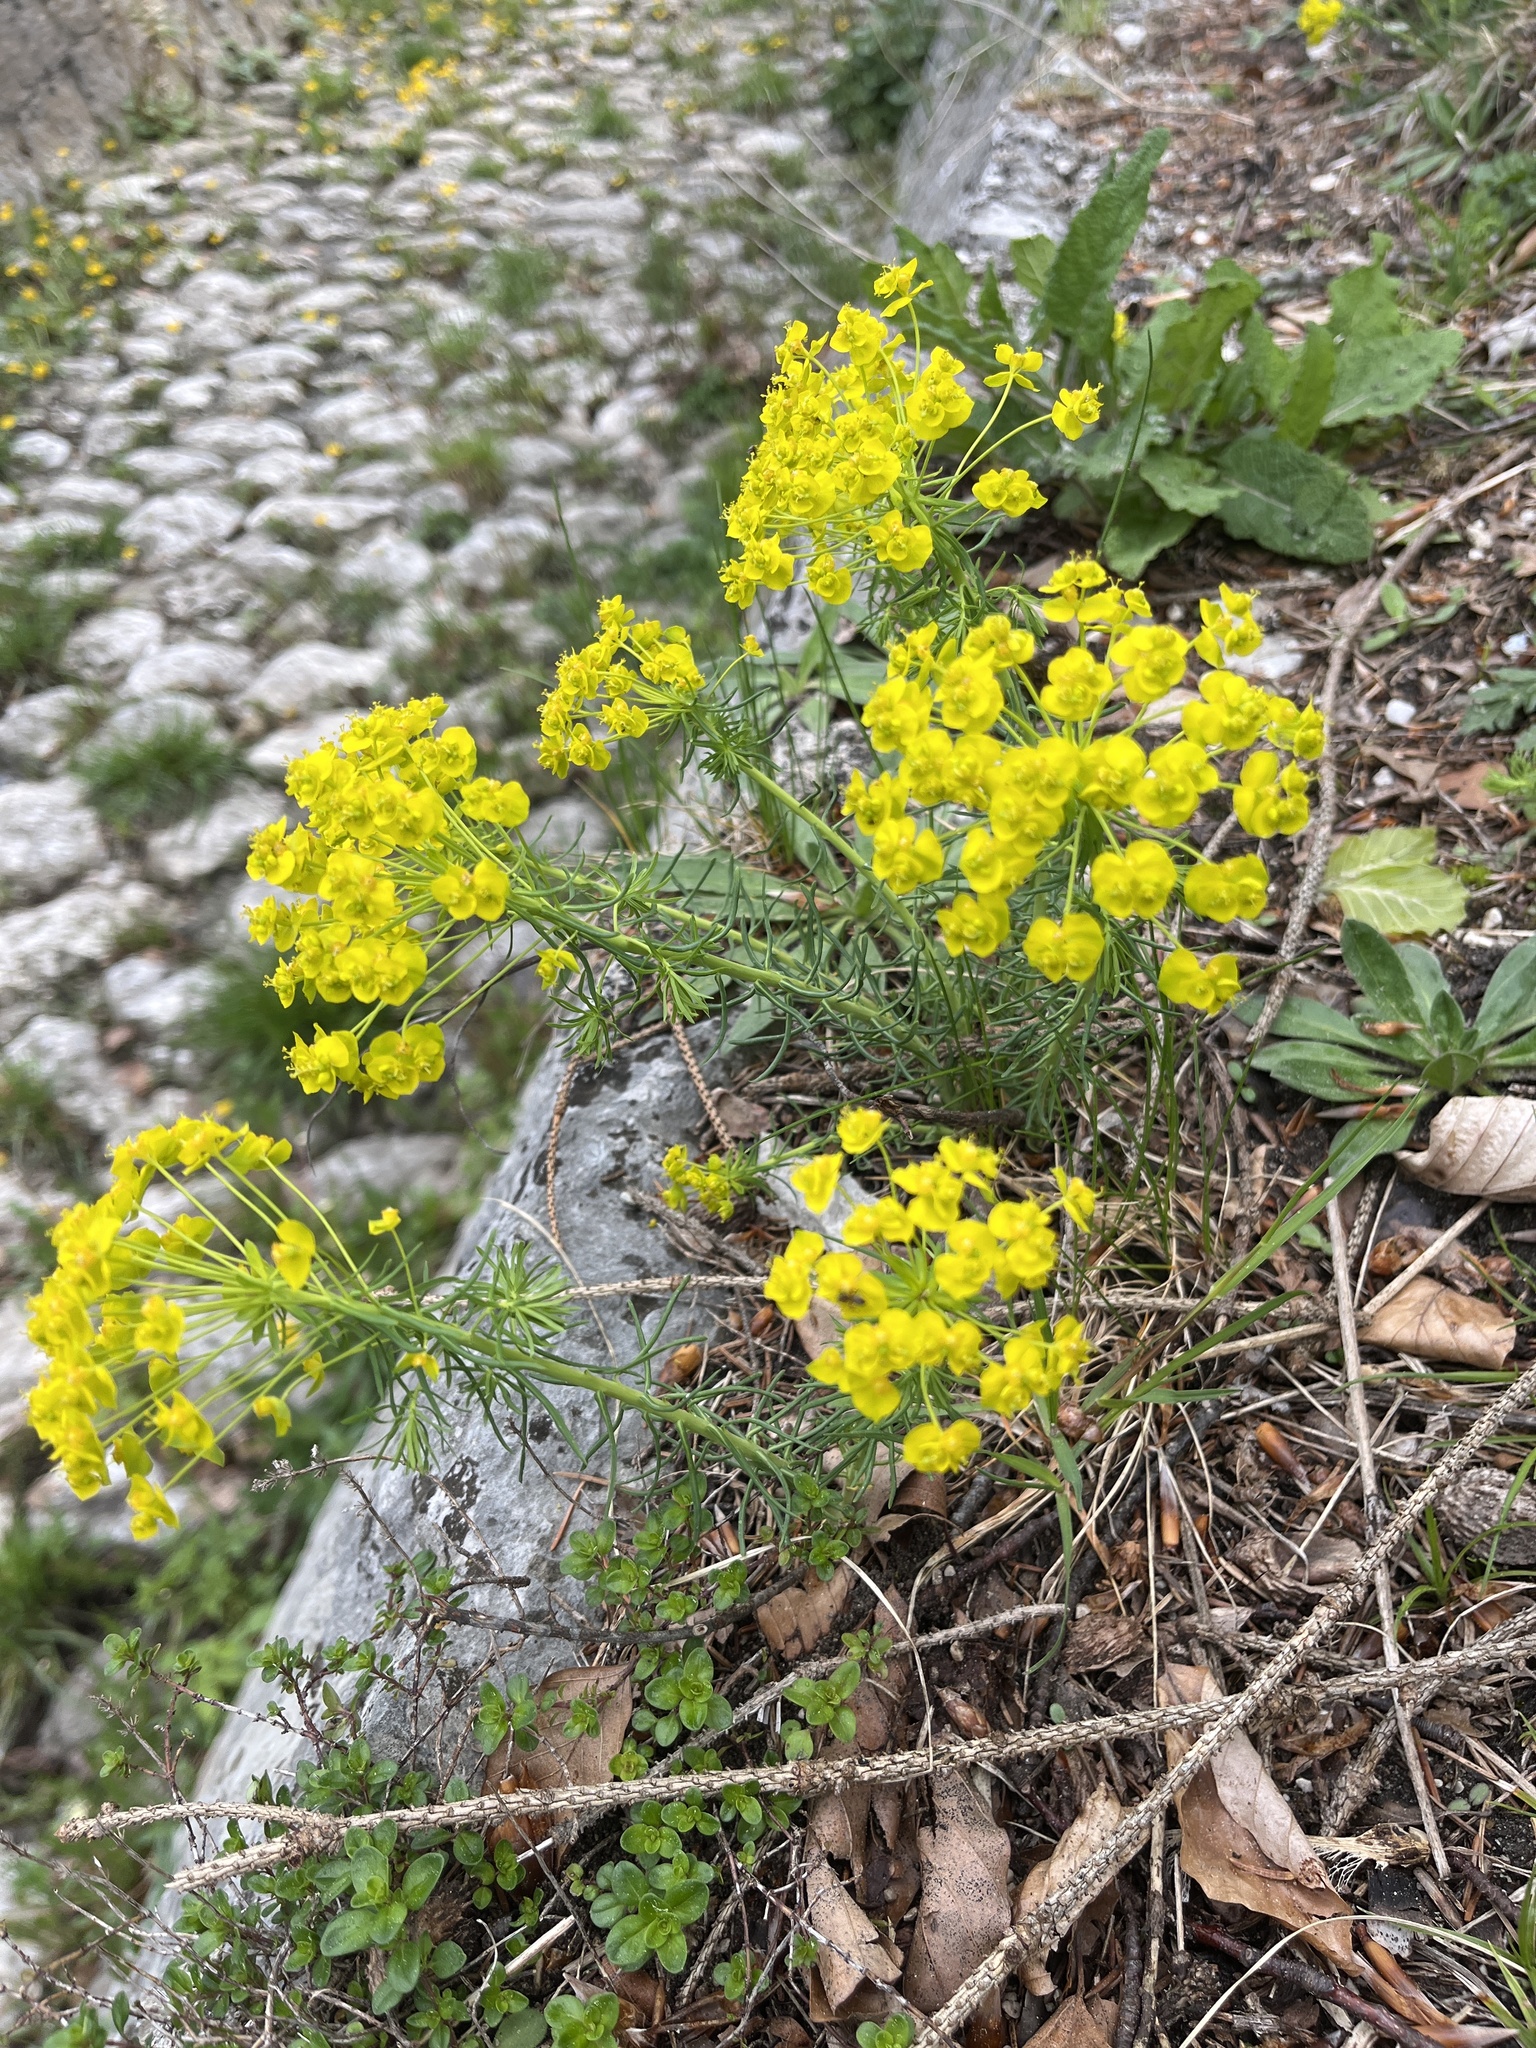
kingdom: Plantae
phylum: Tracheophyta
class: Magnoliopsida
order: Malpighiales
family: Euphorbiaceae
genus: Euphorbia
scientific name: Euphorbia cyparissias
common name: Cypress spurge
